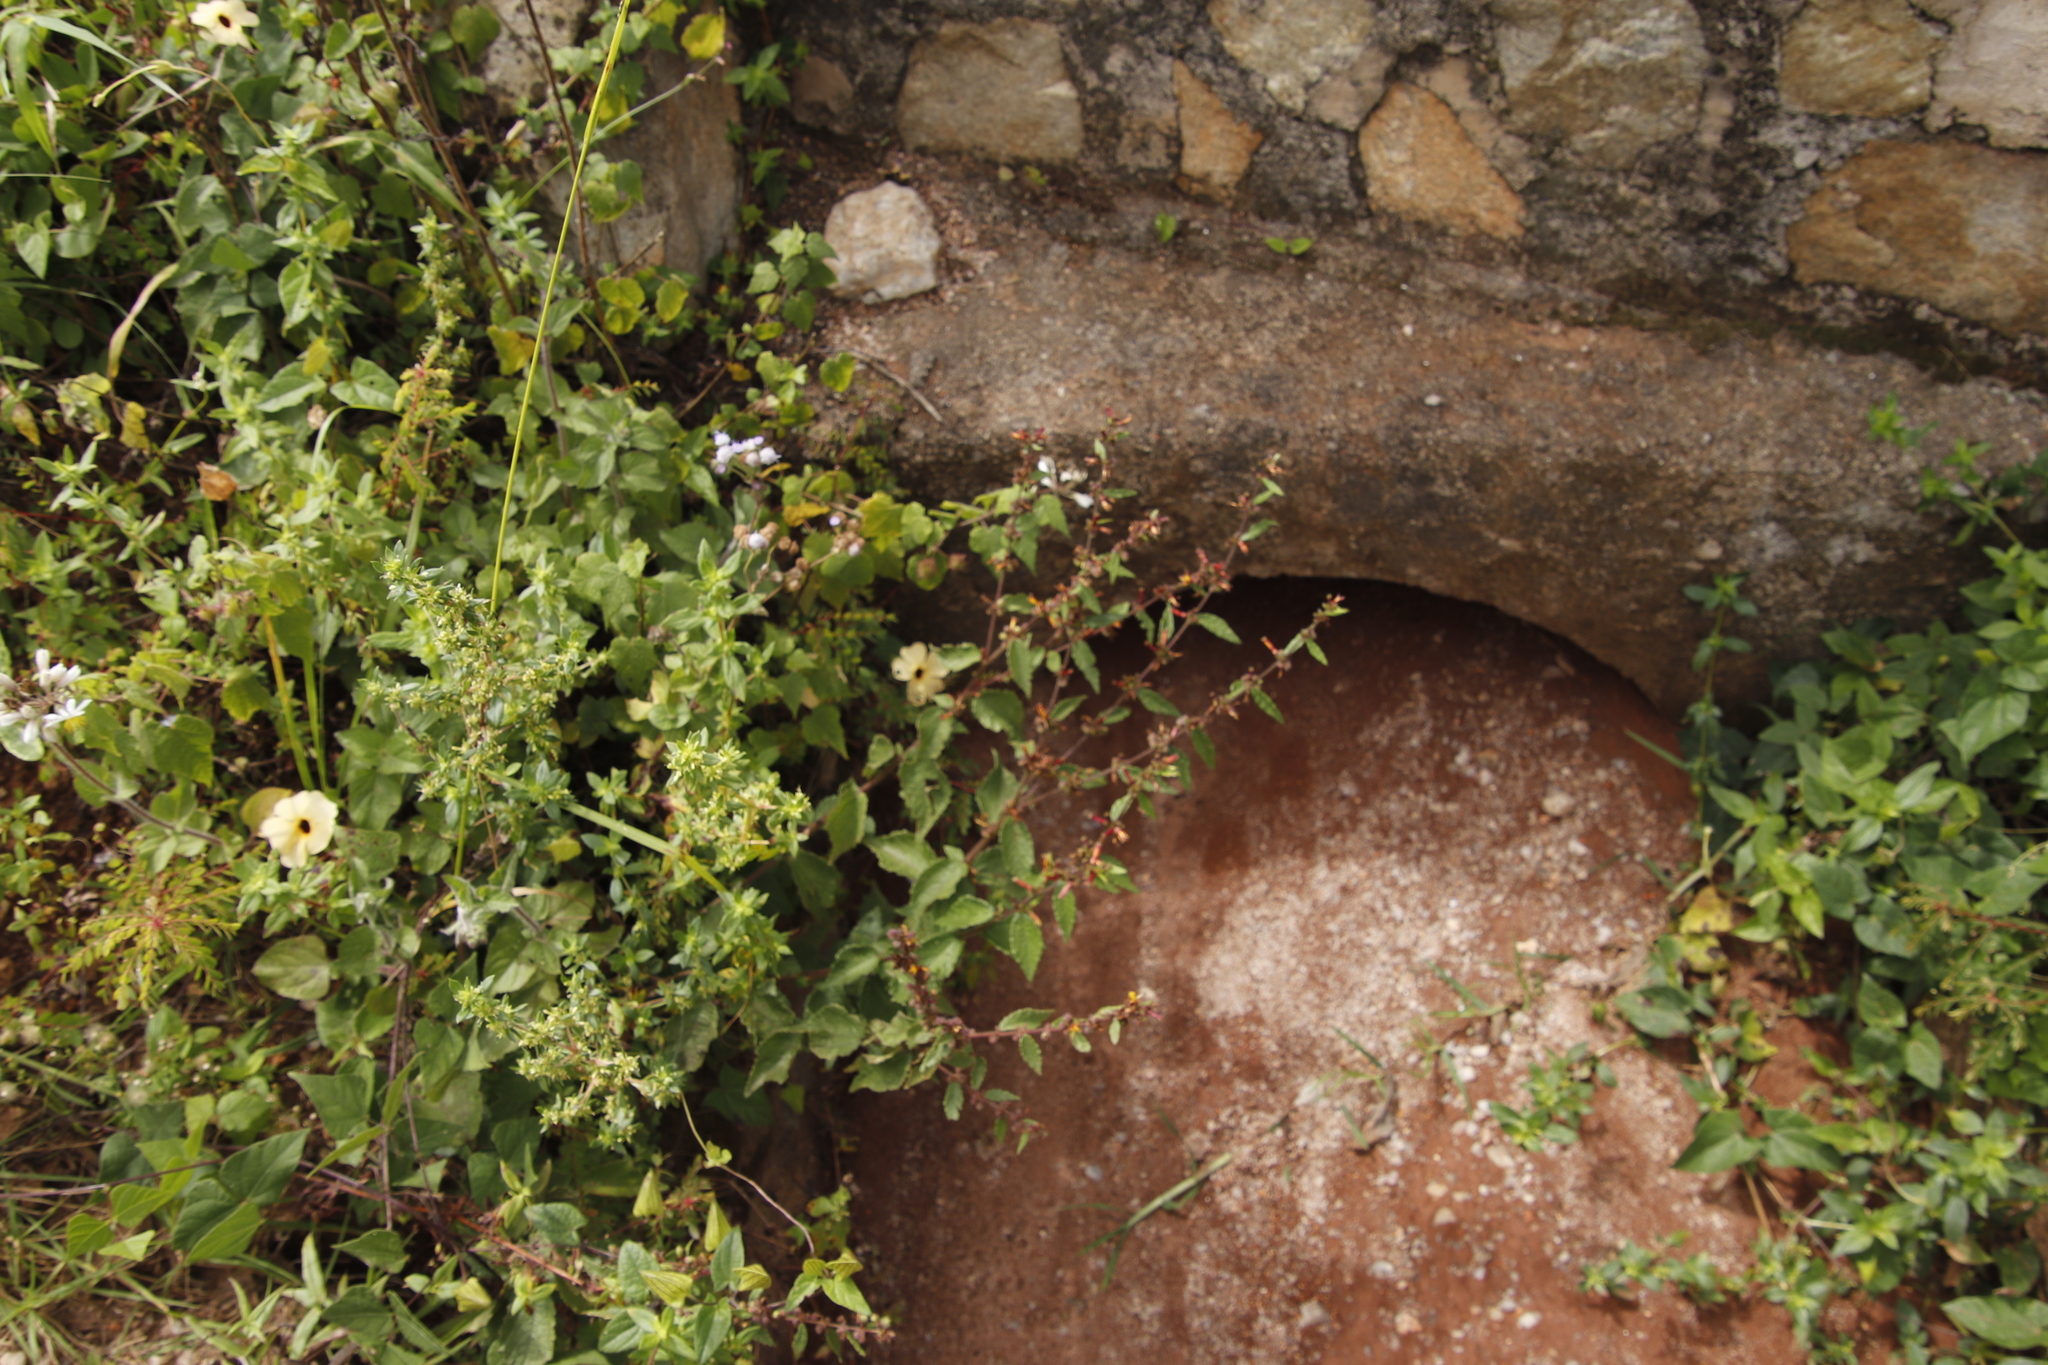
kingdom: Plantae
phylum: Tracheophyta
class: Magnoliopsida
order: Malvales
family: Malvaceae
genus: Triumfetta
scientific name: Triumfetta rhomboidea
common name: Diamond burbark
